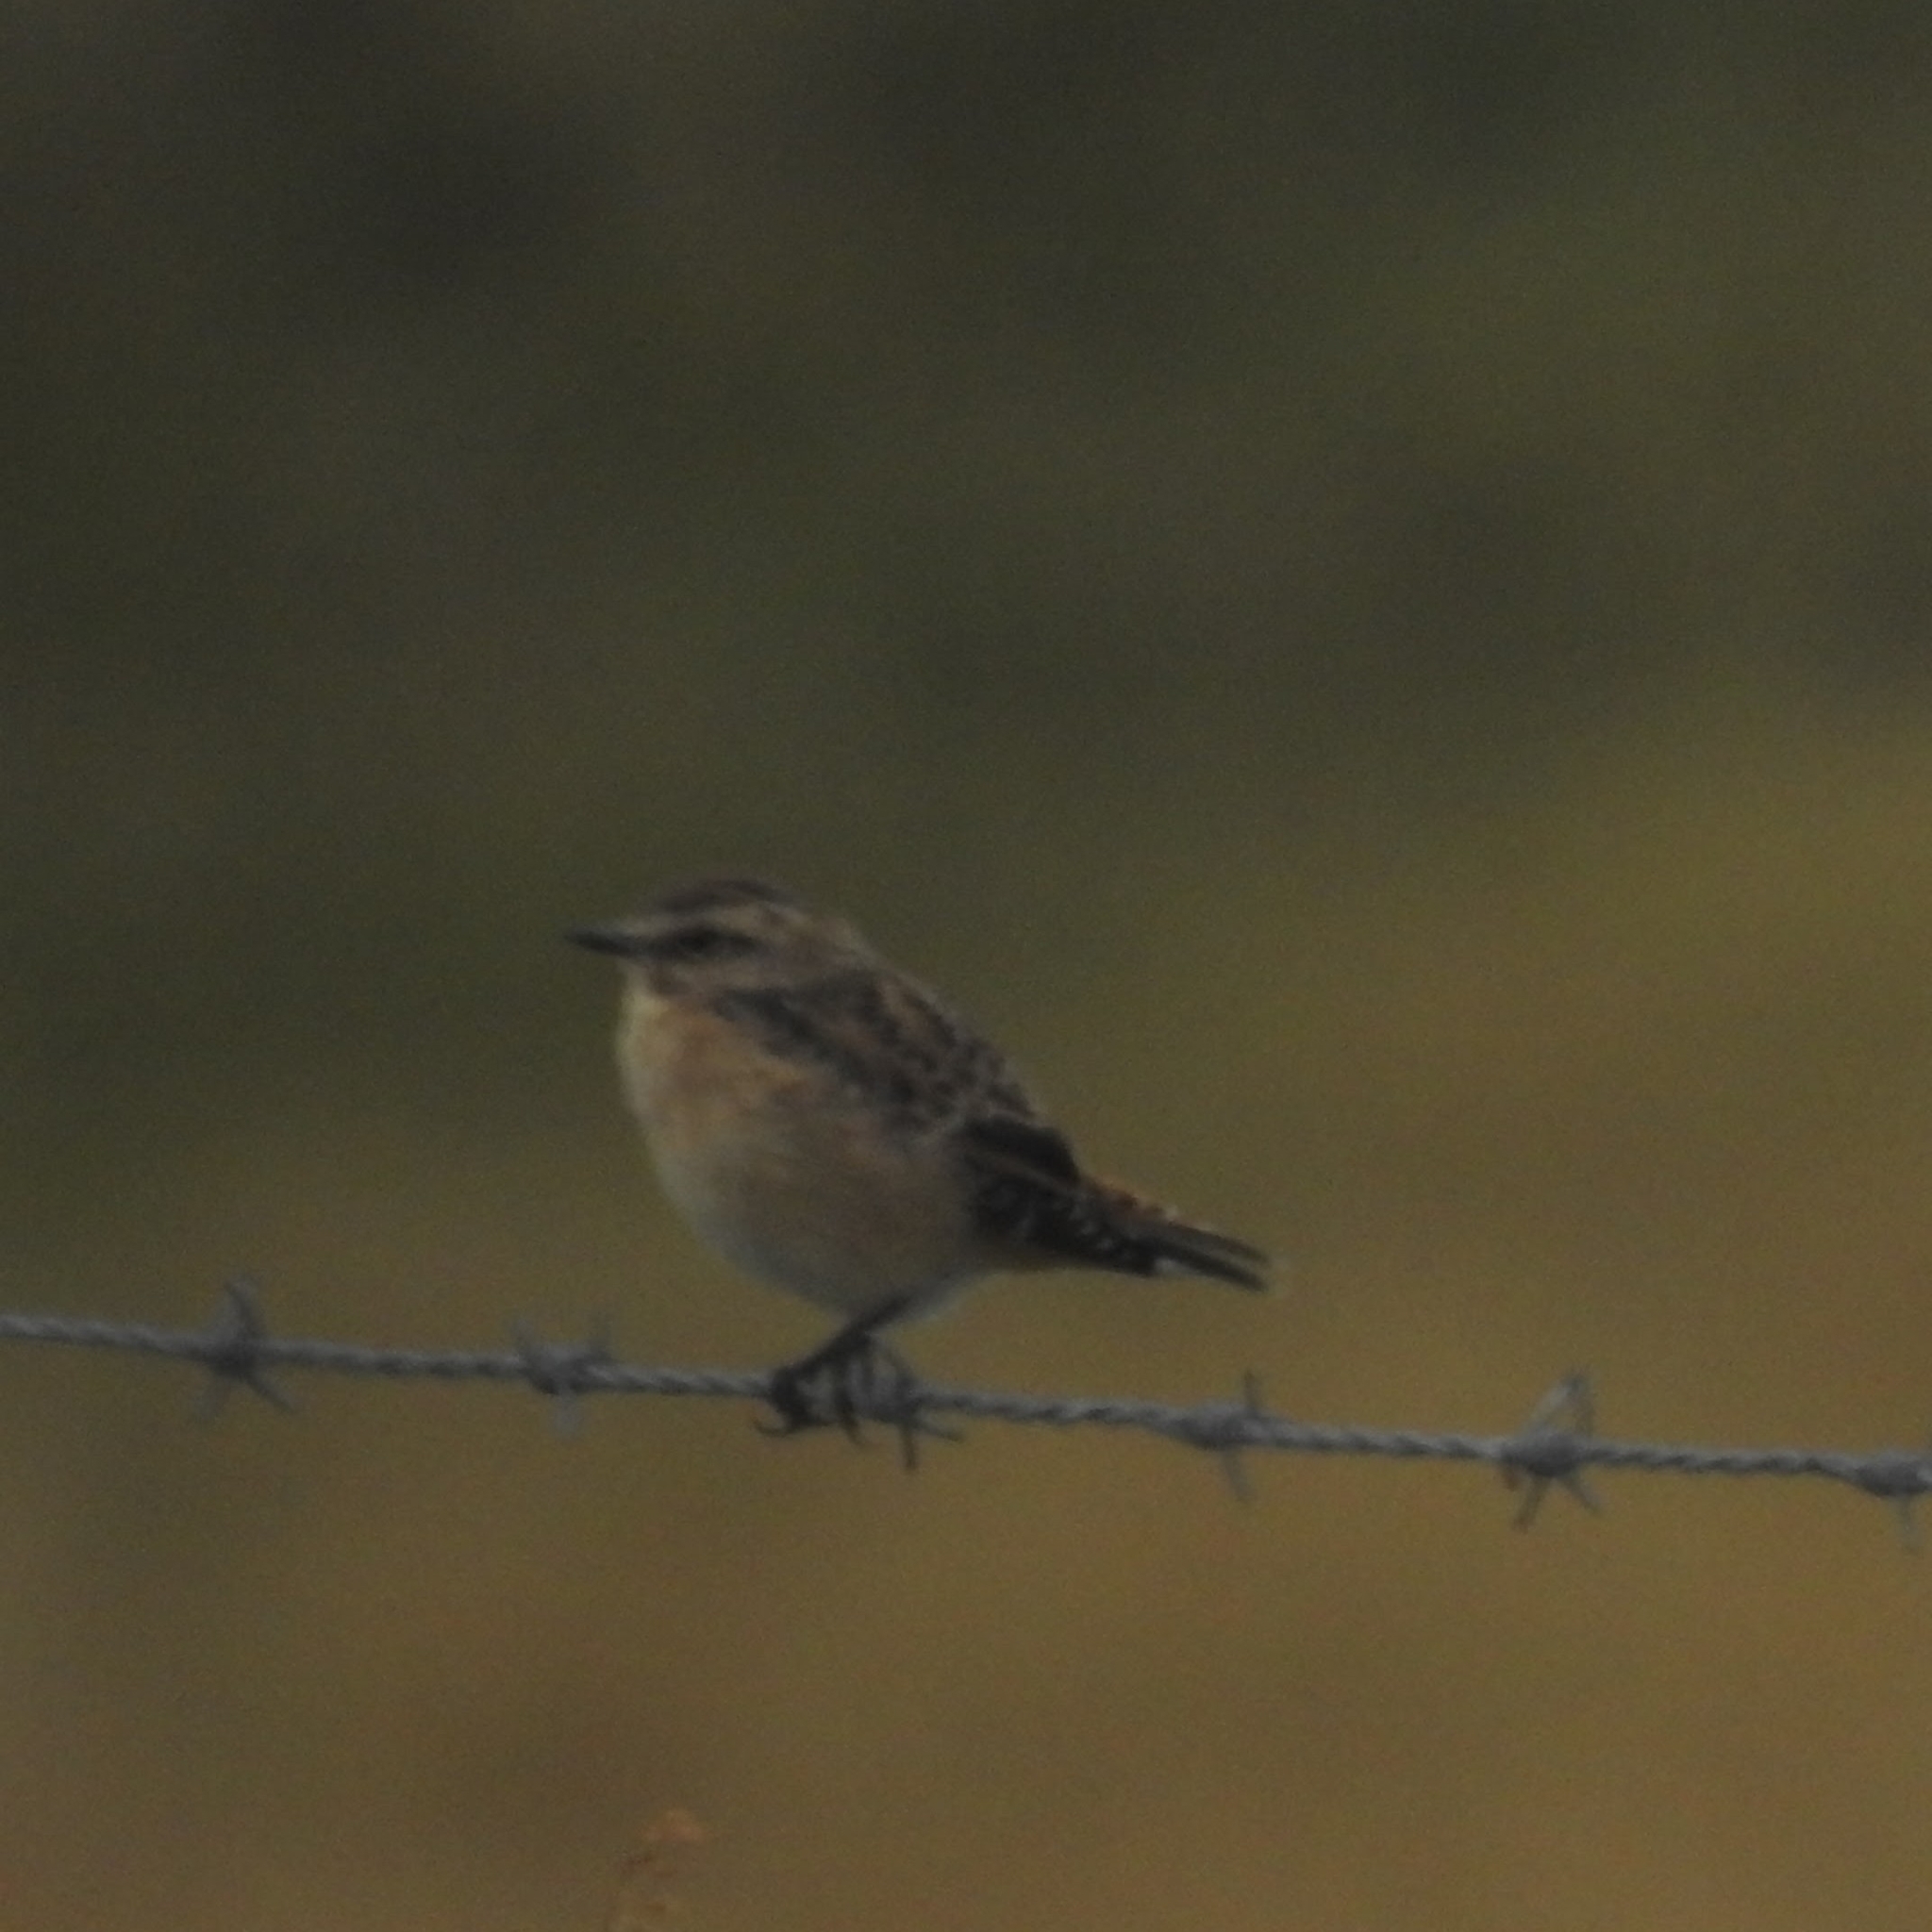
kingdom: Animalia
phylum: Chordata
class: Aves
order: Passeriformes
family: Muscicapidae
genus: Saxicola
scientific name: Saxicola rubetra
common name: Whinchat
